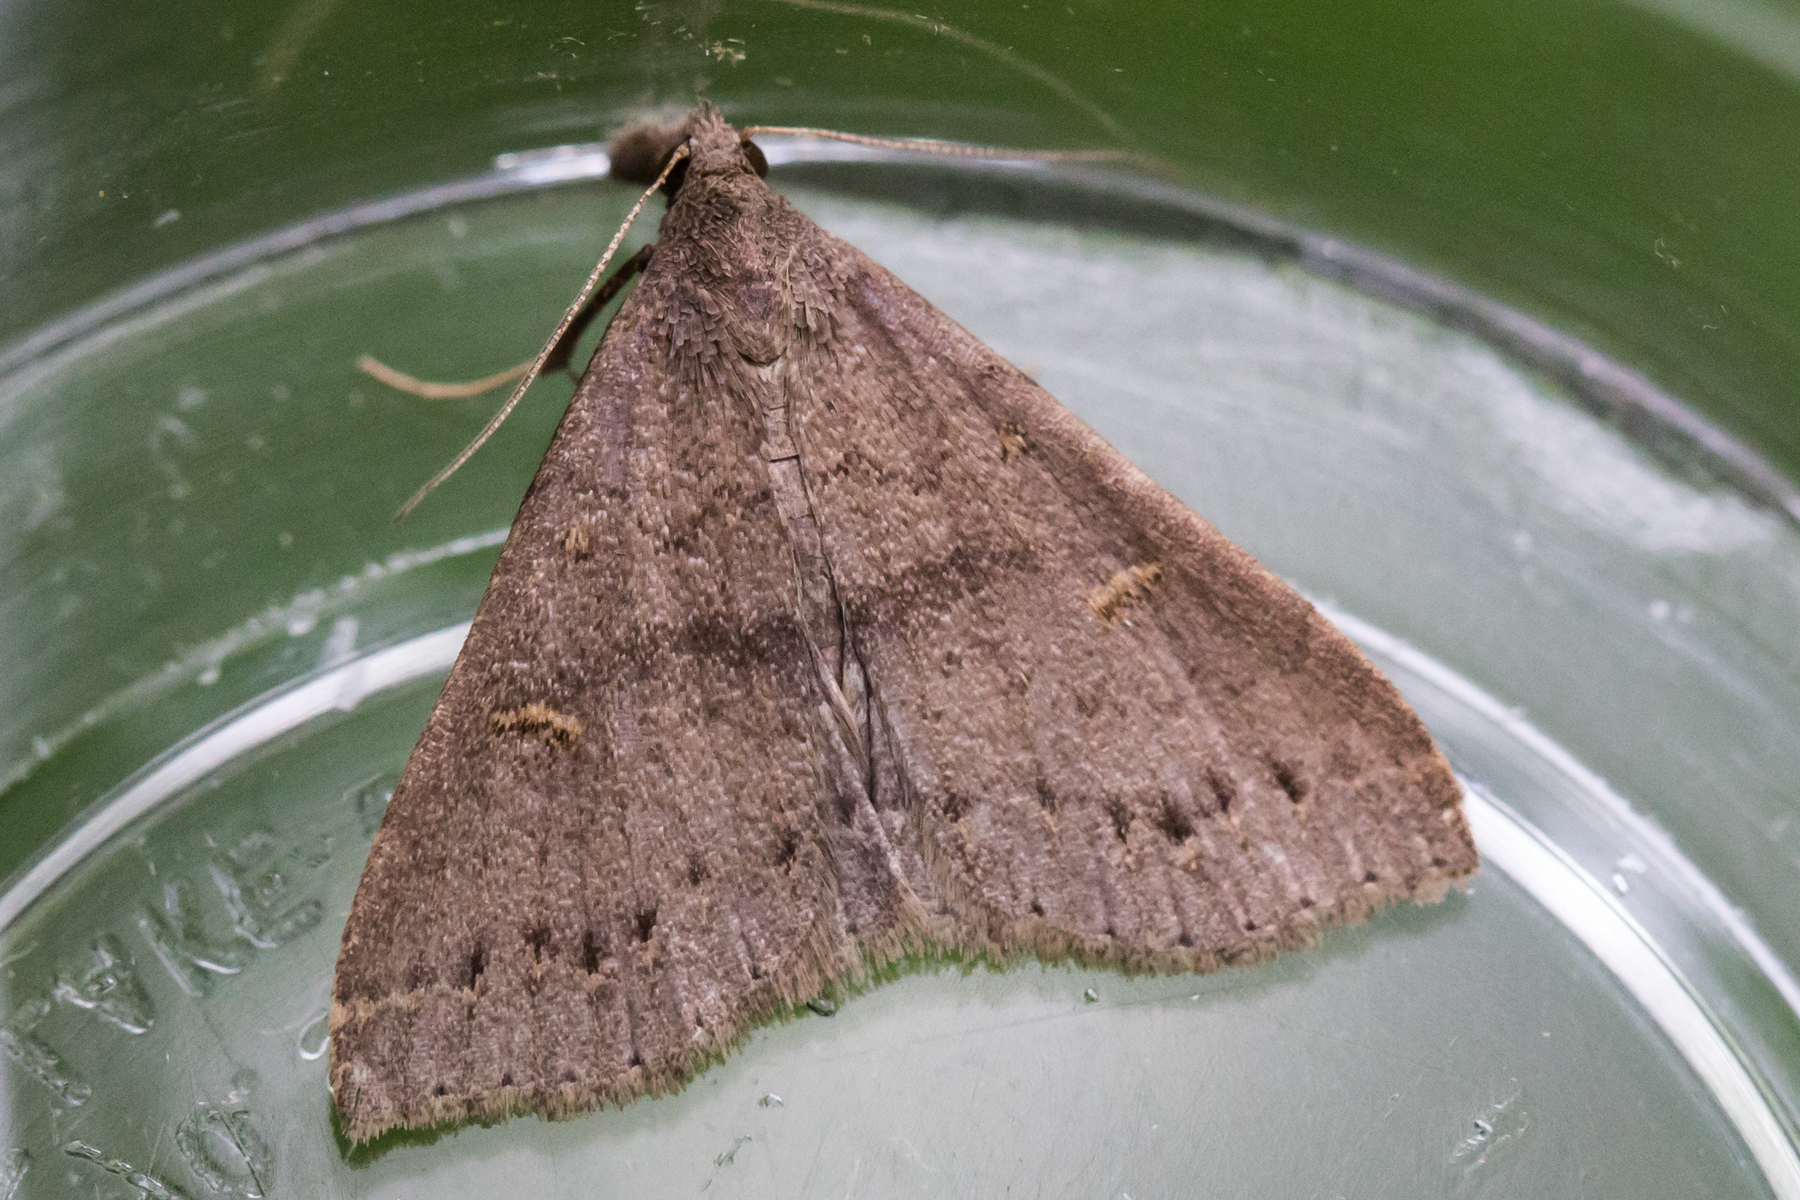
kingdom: Animalia
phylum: Arthropoda
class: Insecta
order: Lepidoptera
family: Erebidae
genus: Renia
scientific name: Renia adspergillus
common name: Speckled renia moth
